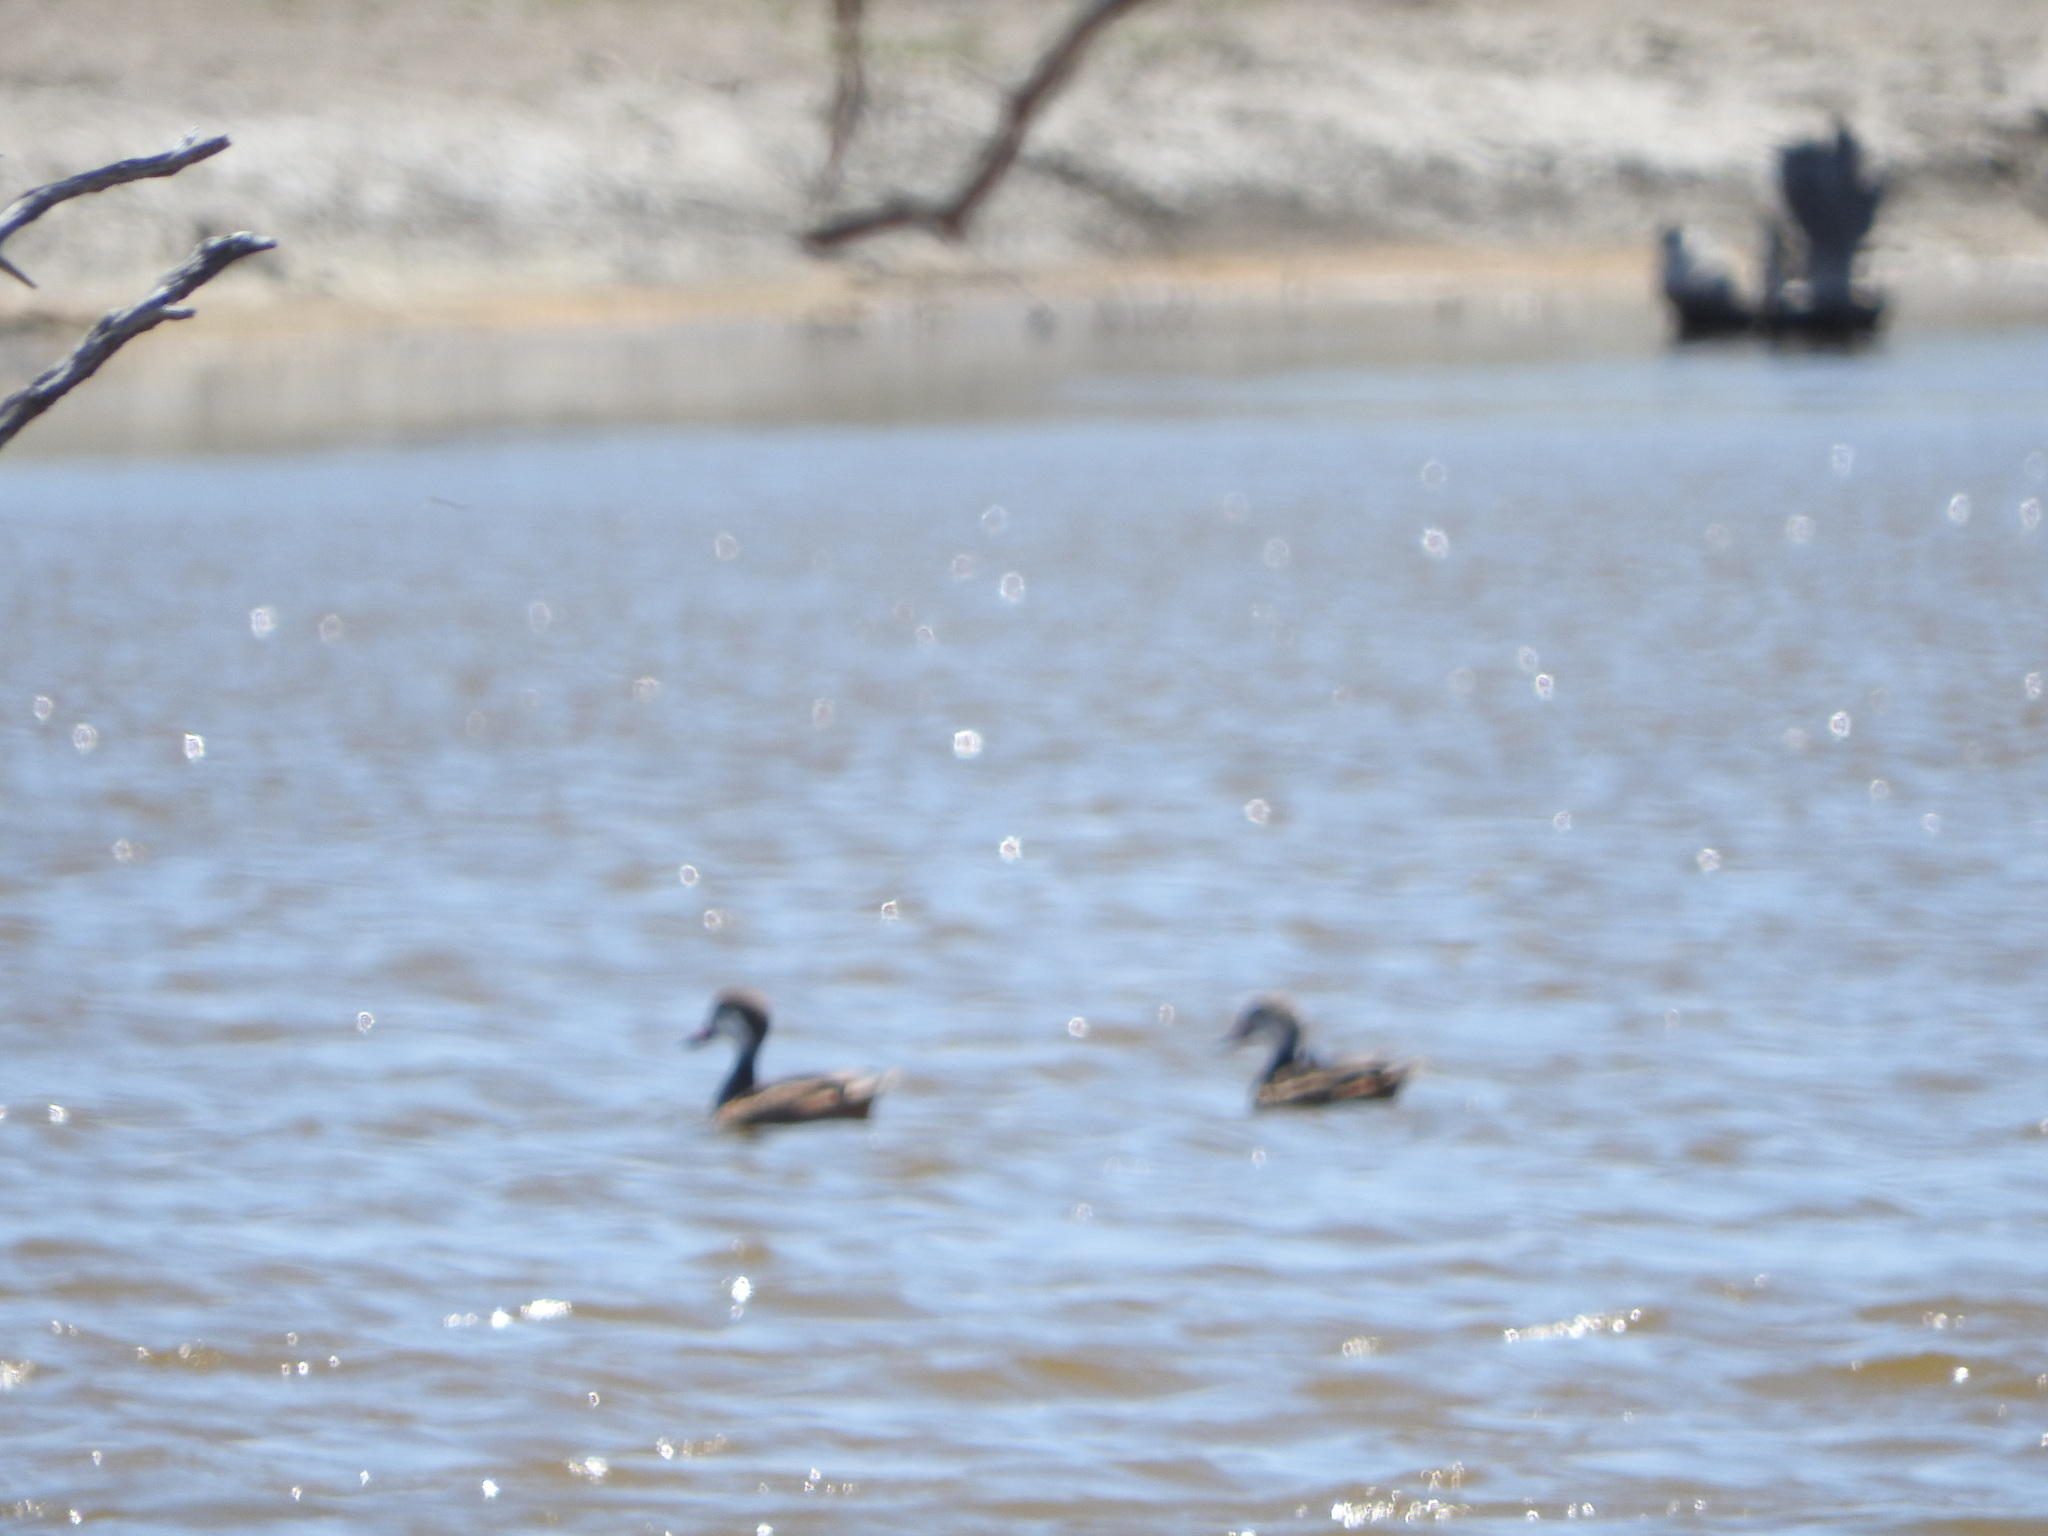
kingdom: Animalia
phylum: Chordata
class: Aves
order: Anseriformes
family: Anatidae
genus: Anas
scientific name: Anas bahamensis
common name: White-cheeked pintail
